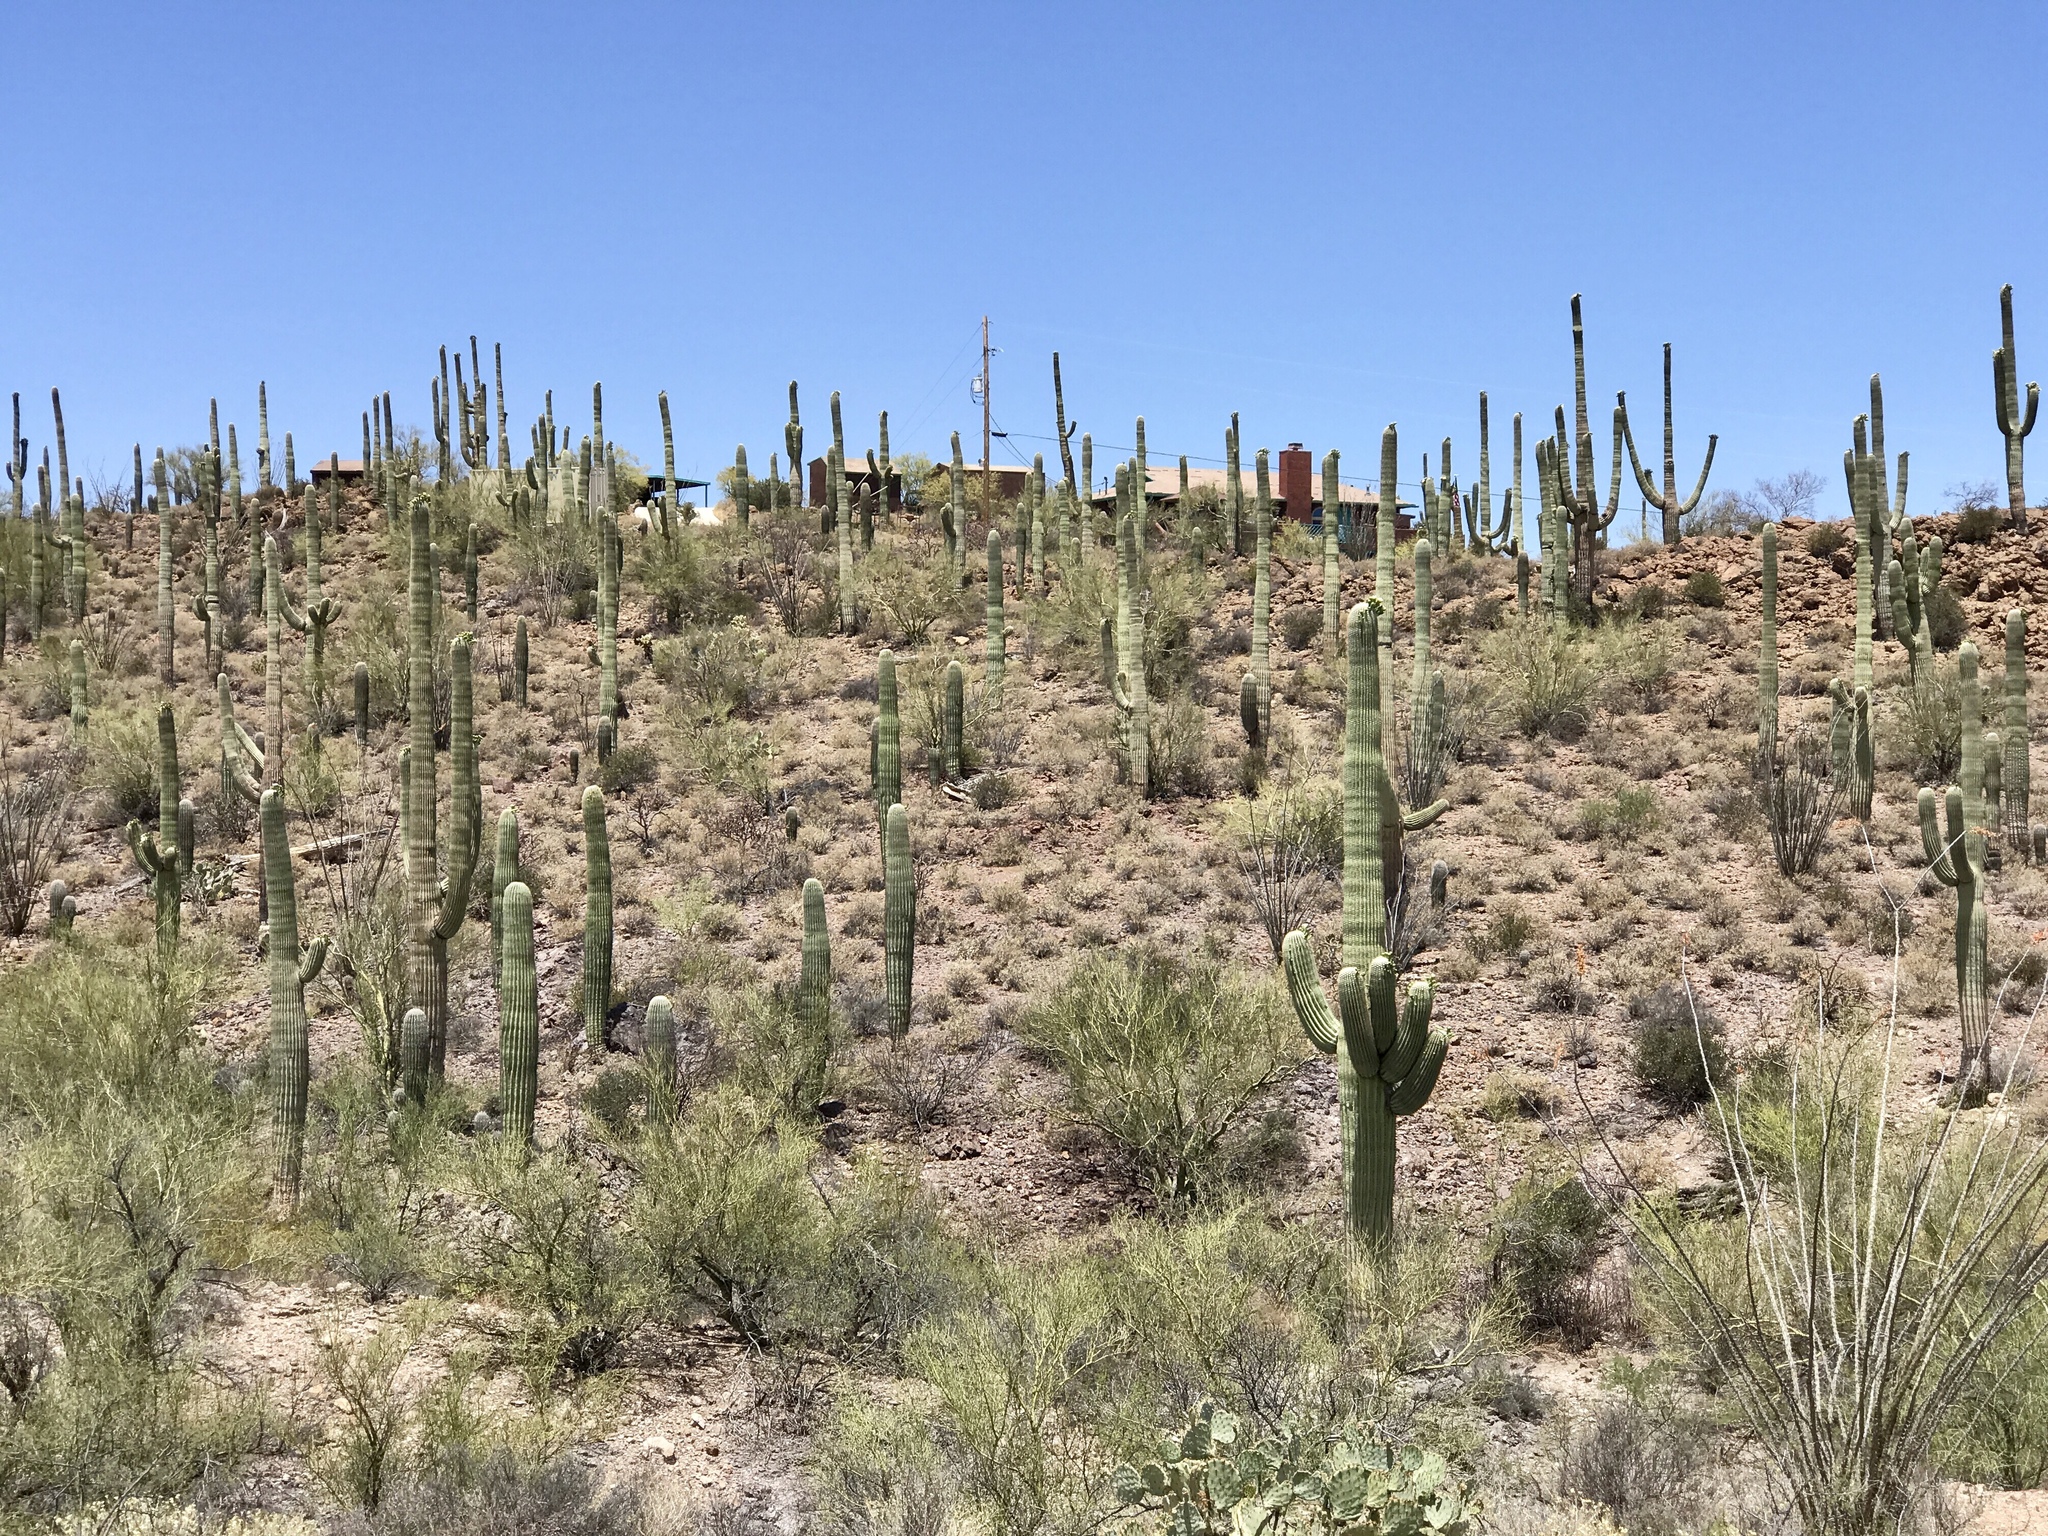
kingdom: Plantae
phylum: Tracheophyta
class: Magnoliopsida
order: Caryophyllales
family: Cactaceae
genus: Carnegiea
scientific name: Carnegiea gigantea
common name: Saguaro
